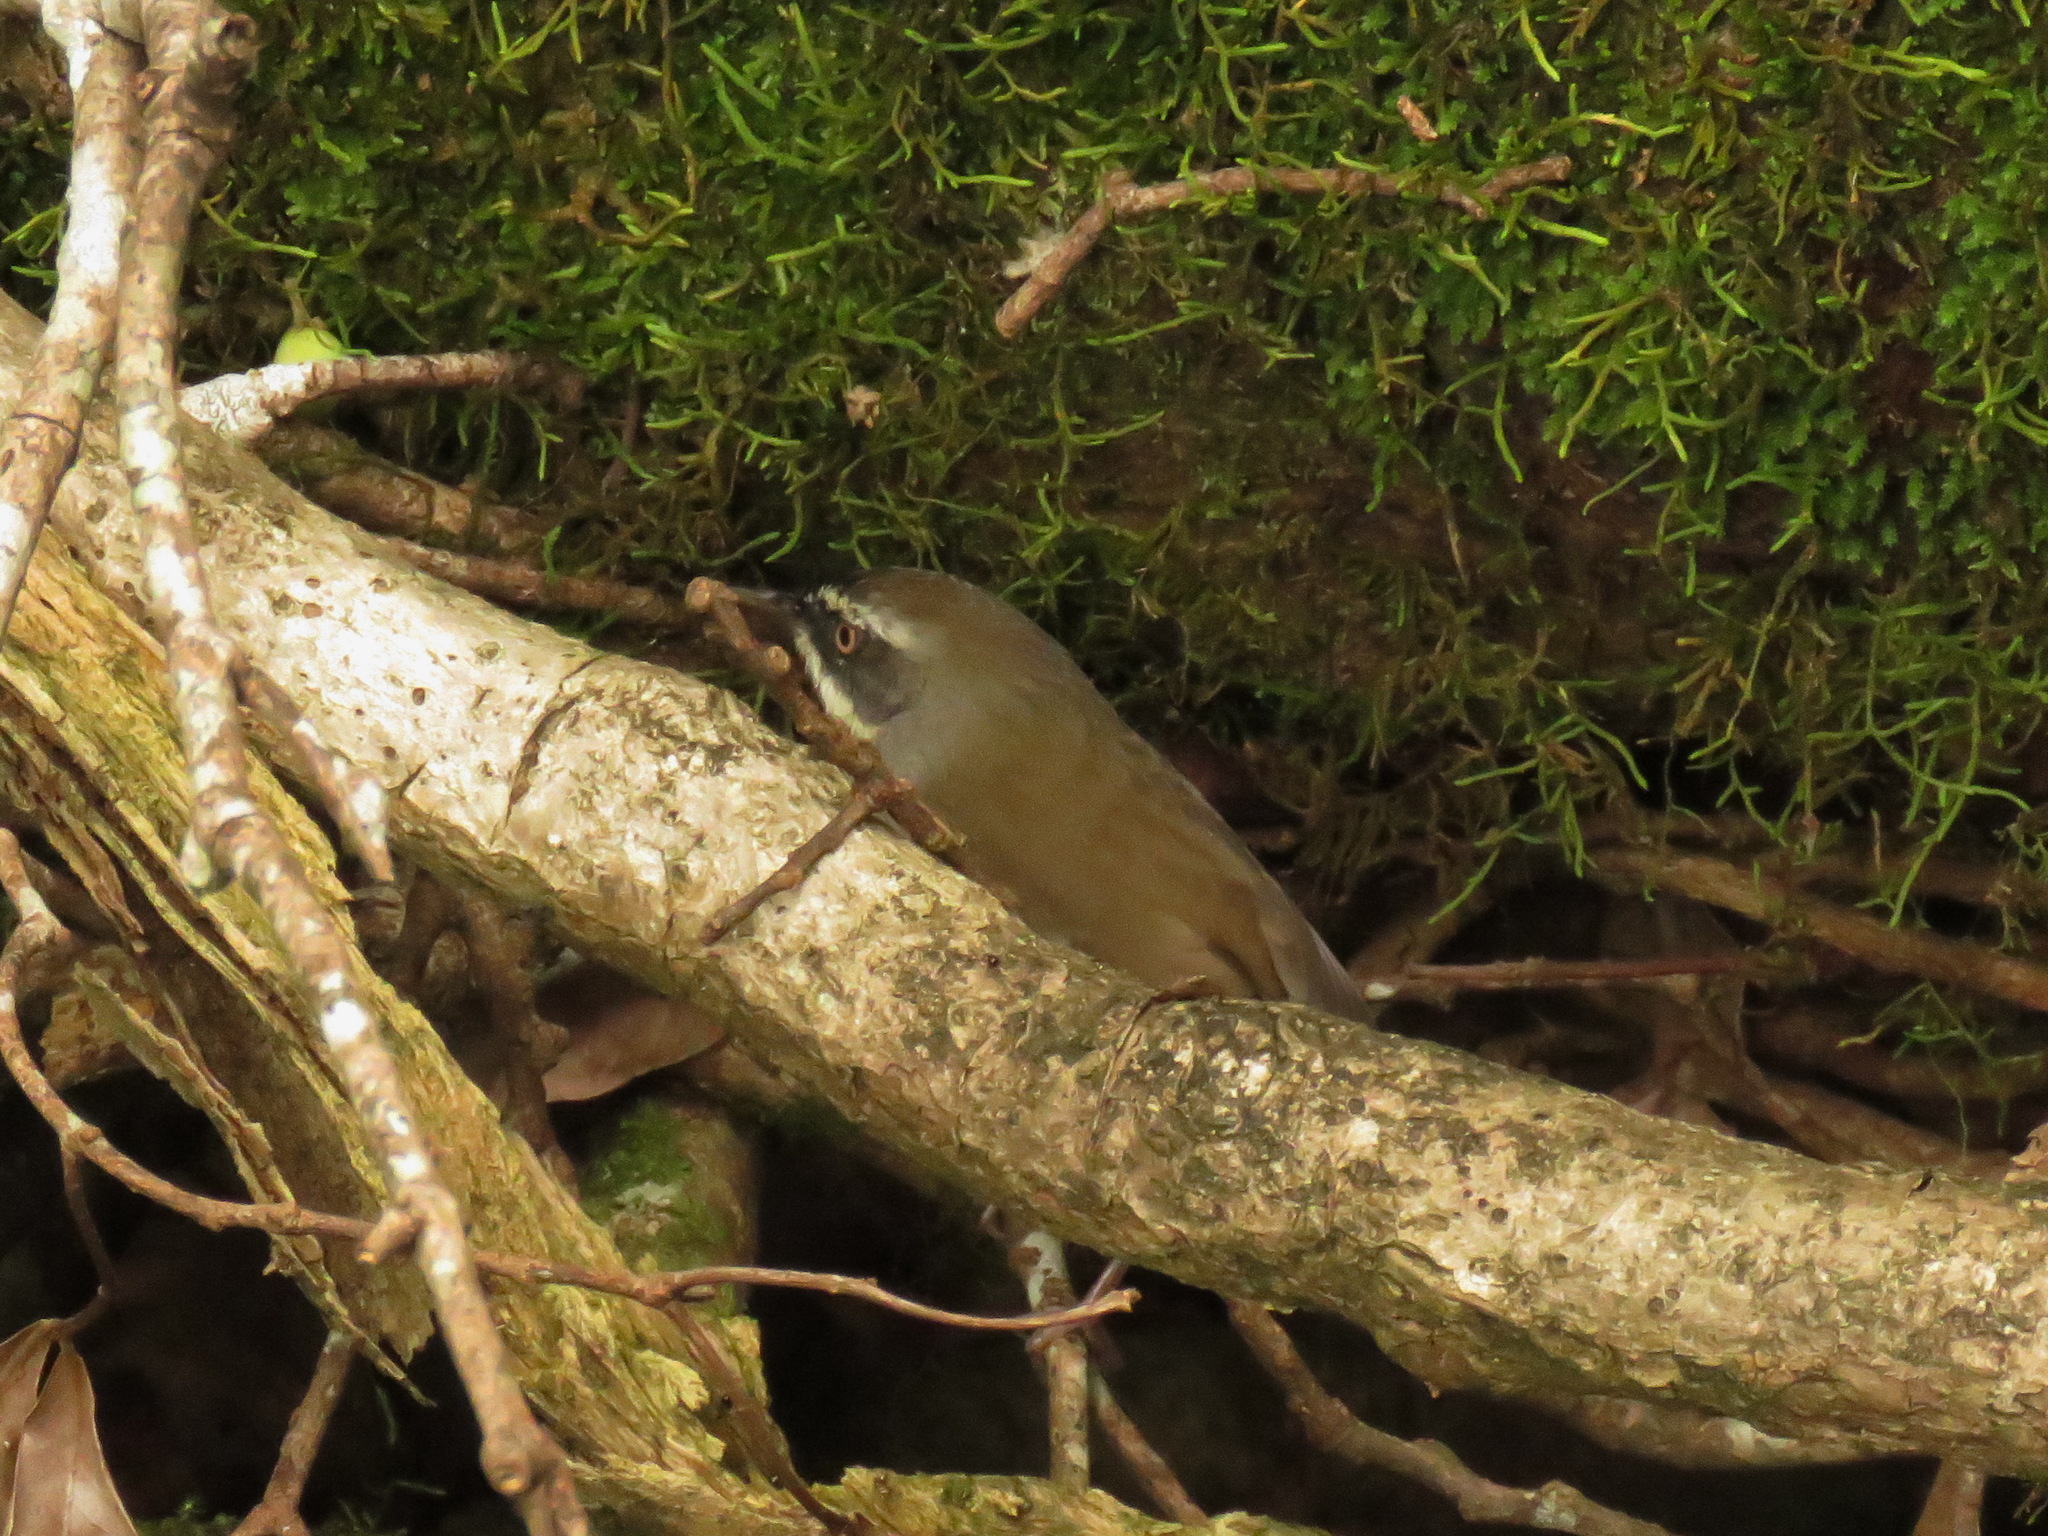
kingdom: Animalia
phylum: Chordata
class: Aves
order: Passeriformes
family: Acanthizidae
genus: Sericornis
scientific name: Sericornis frontalis
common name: White-browed scrubwren
